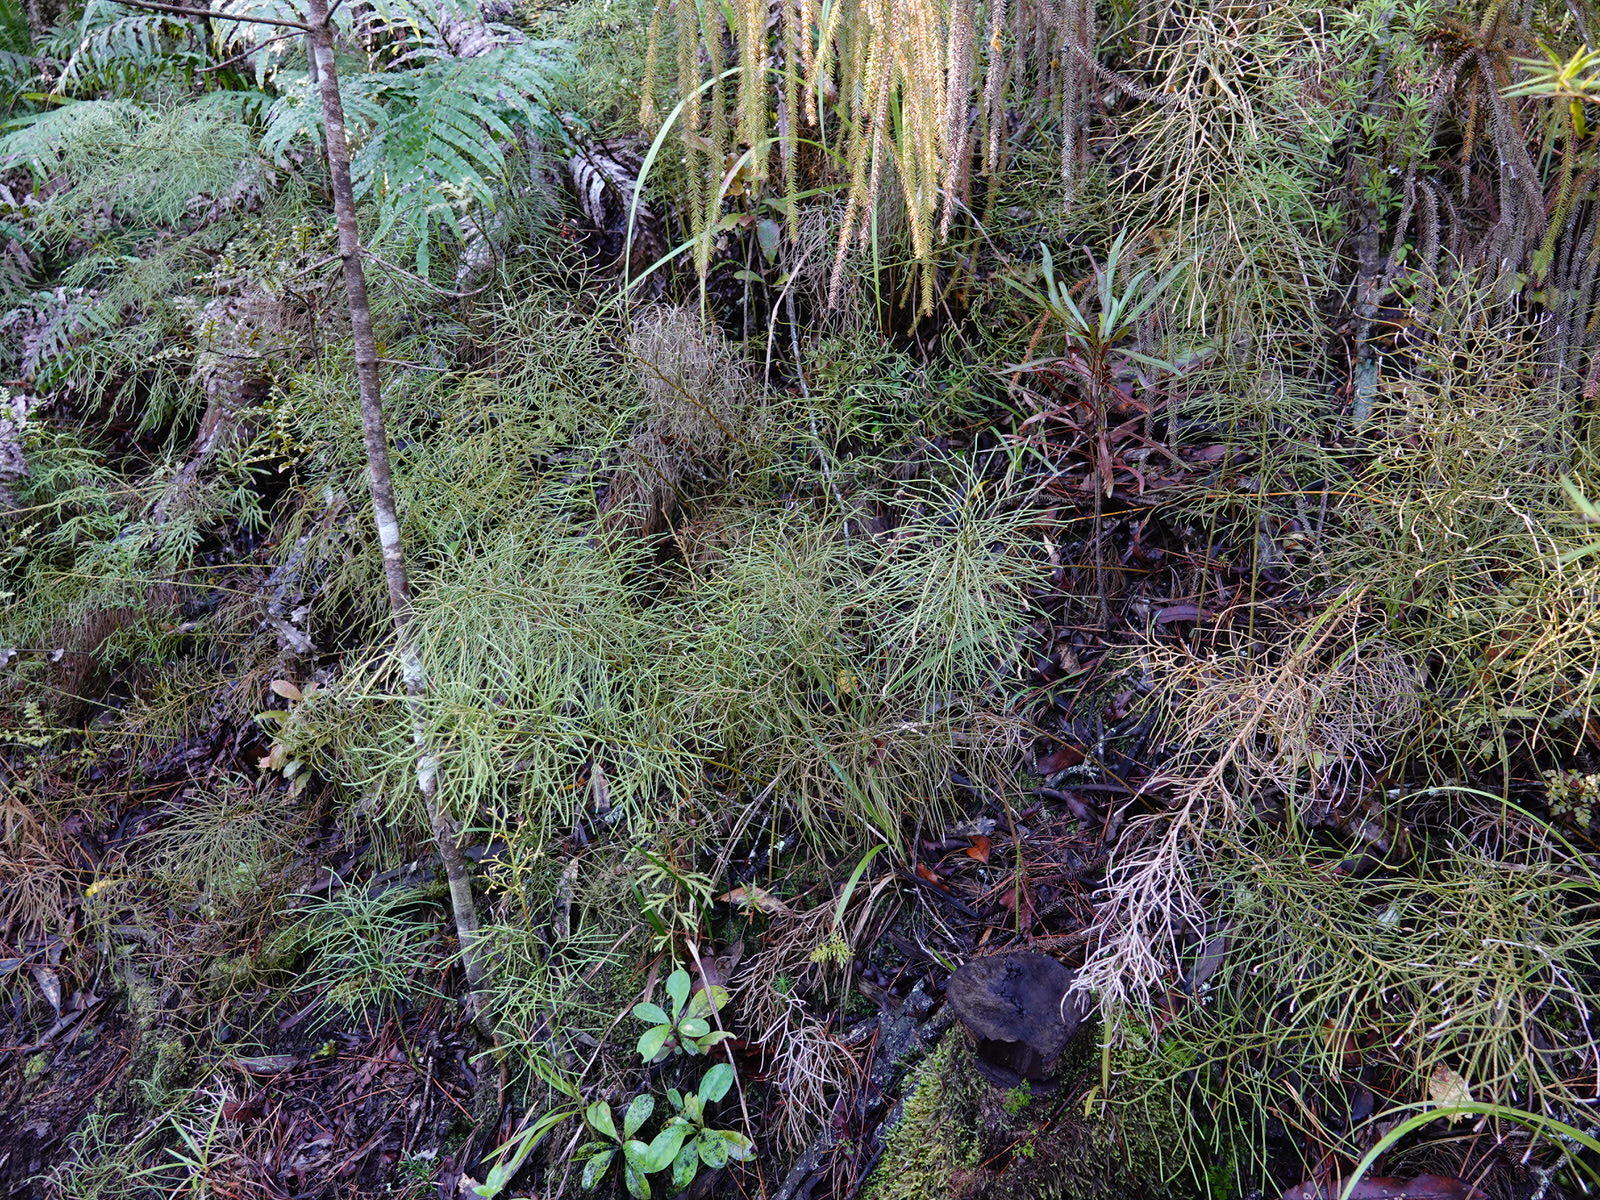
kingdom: Plantae
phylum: Tracheophyta
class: Lycopodiopsida
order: Lycopodiales
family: Lycopodiaceae
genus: Pseudolycopodium
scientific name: Pseudolycopodium densum
